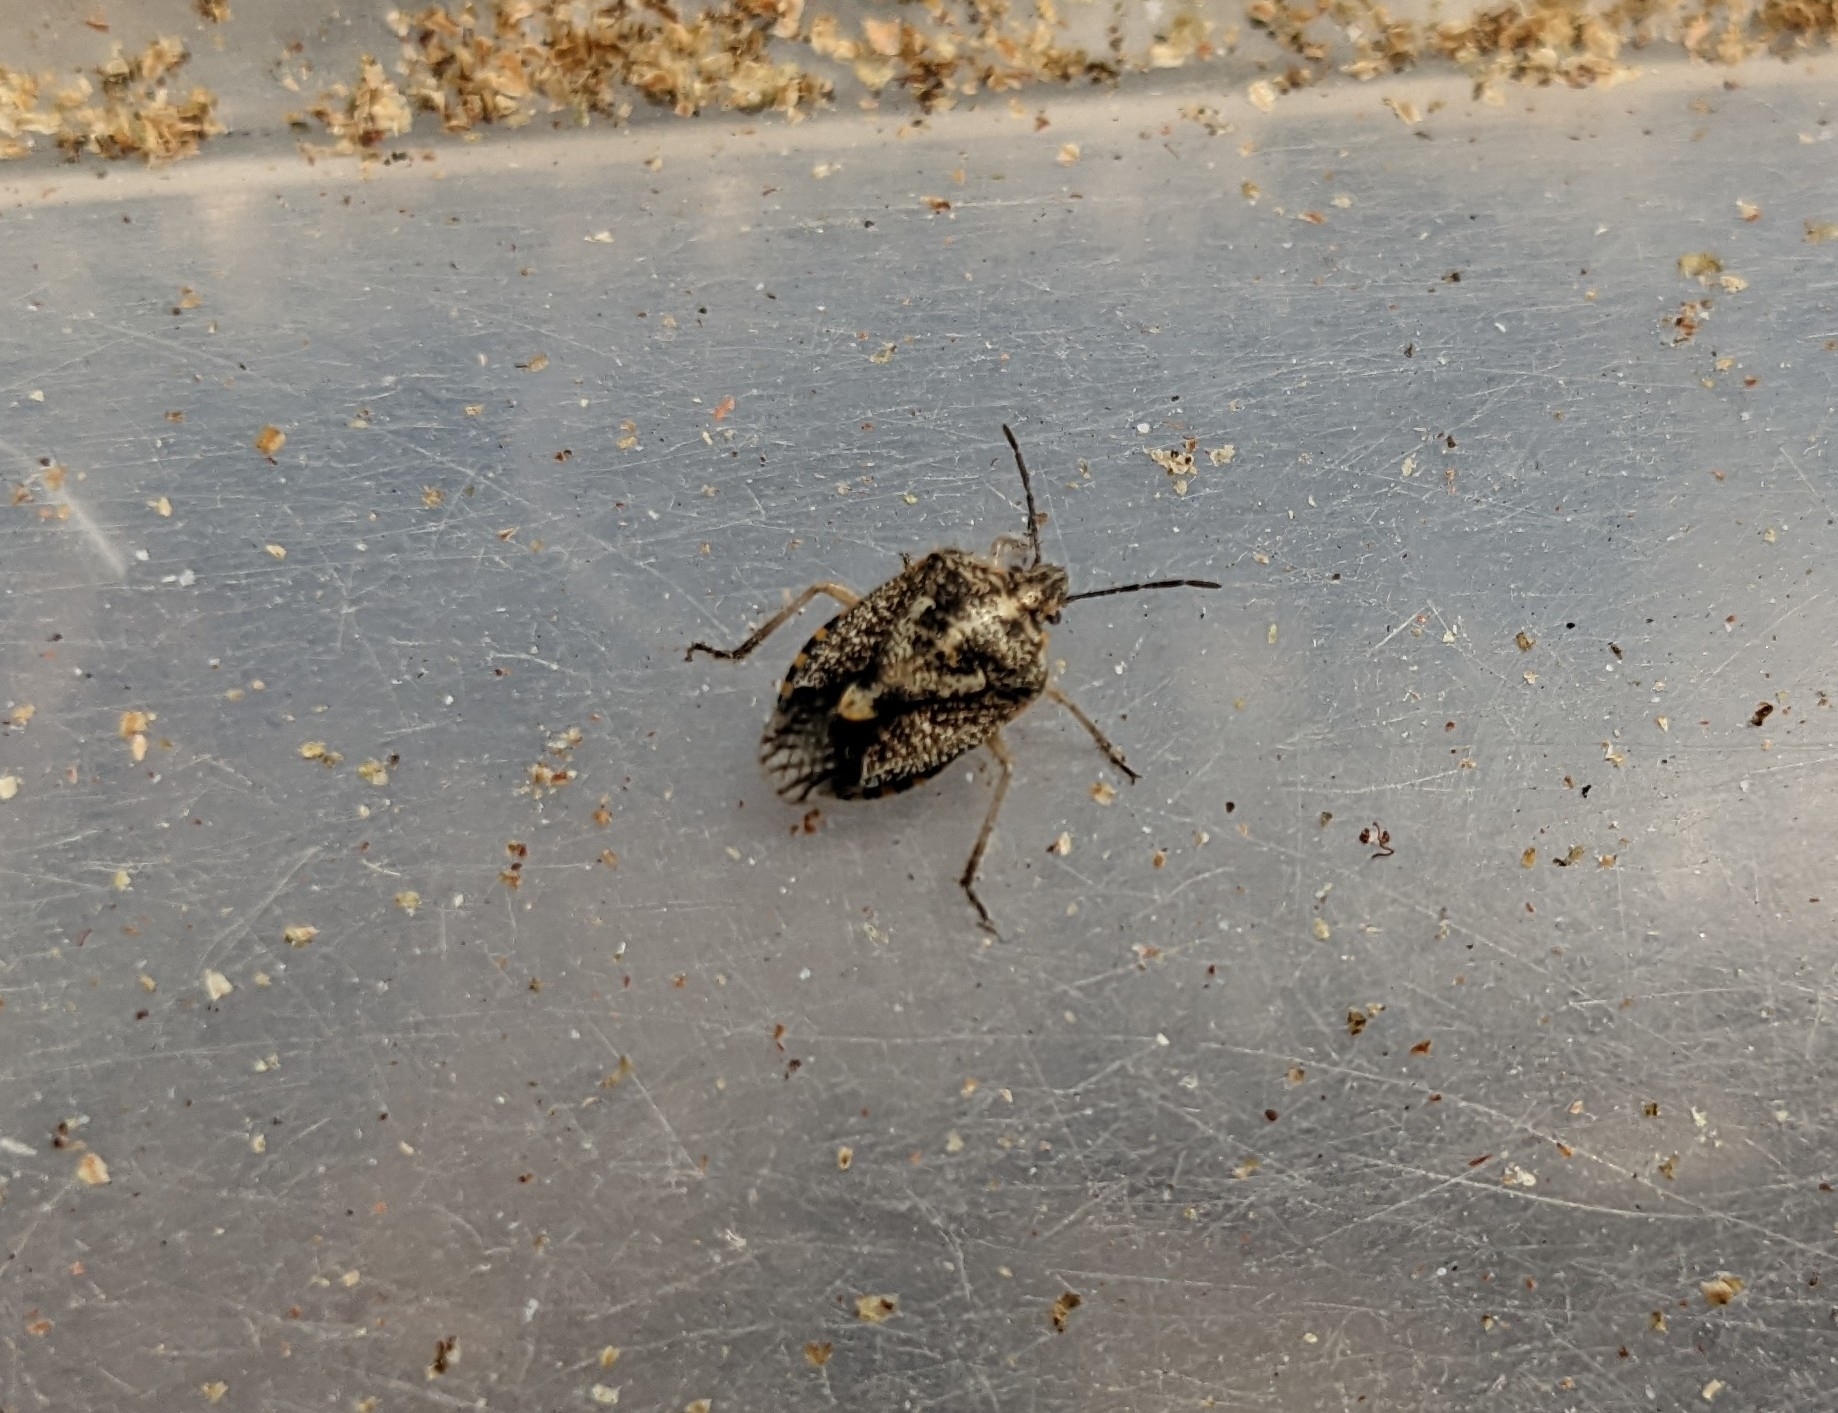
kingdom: Animalia
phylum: Arthropoda
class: Insecta
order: Hemiptera
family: Pentatomidae
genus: Agonoscelis
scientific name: Agonoscelis puberula
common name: African cluster bug
